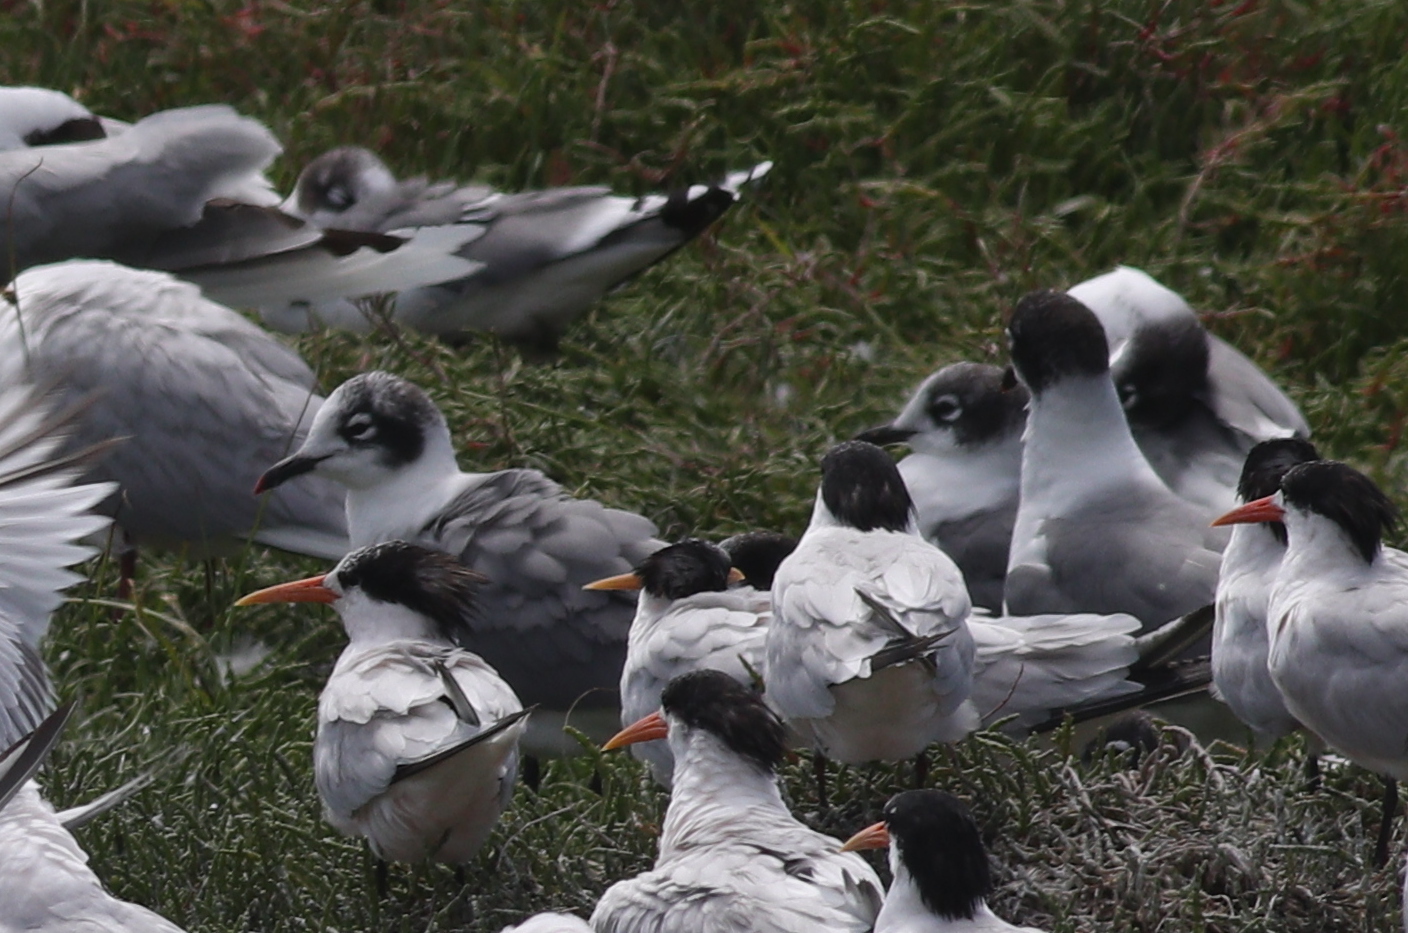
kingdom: Animalia
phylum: Chordata
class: Aves
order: Charadriiformes
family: Laridae
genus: Leucophaeus
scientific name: Leucophaeus pipixcan
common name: Franklin's gull
